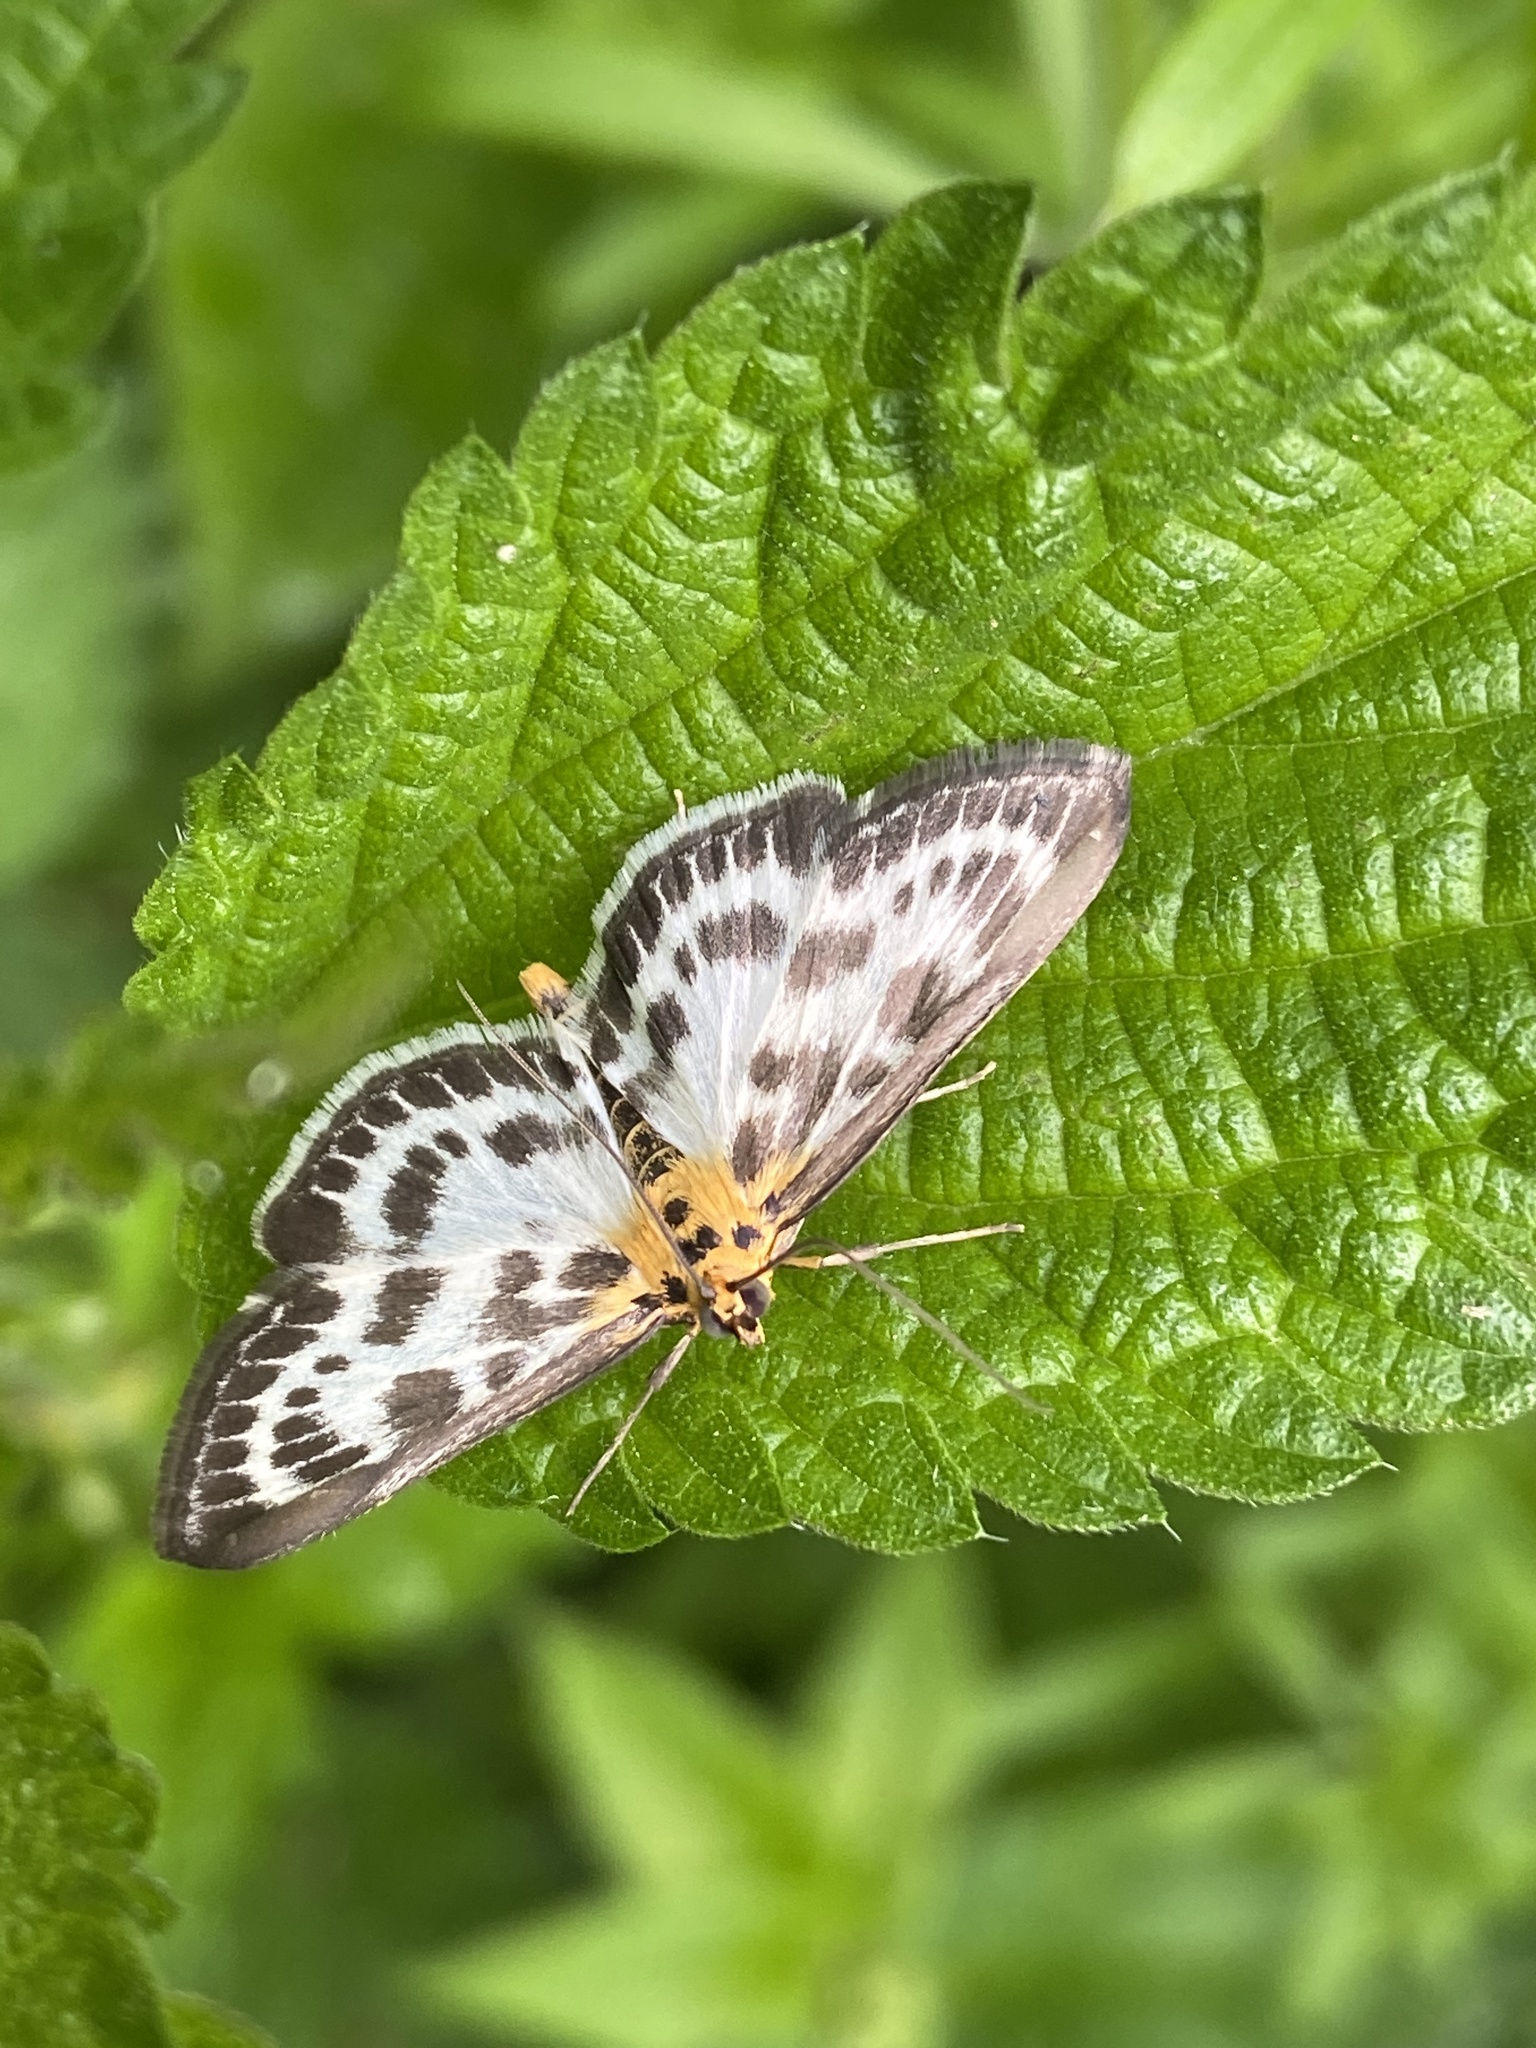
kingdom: Animalia
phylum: Arthropoda
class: Insecta
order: Lepidoptera
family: Crambidae
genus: Anania
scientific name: Anania hortulata
